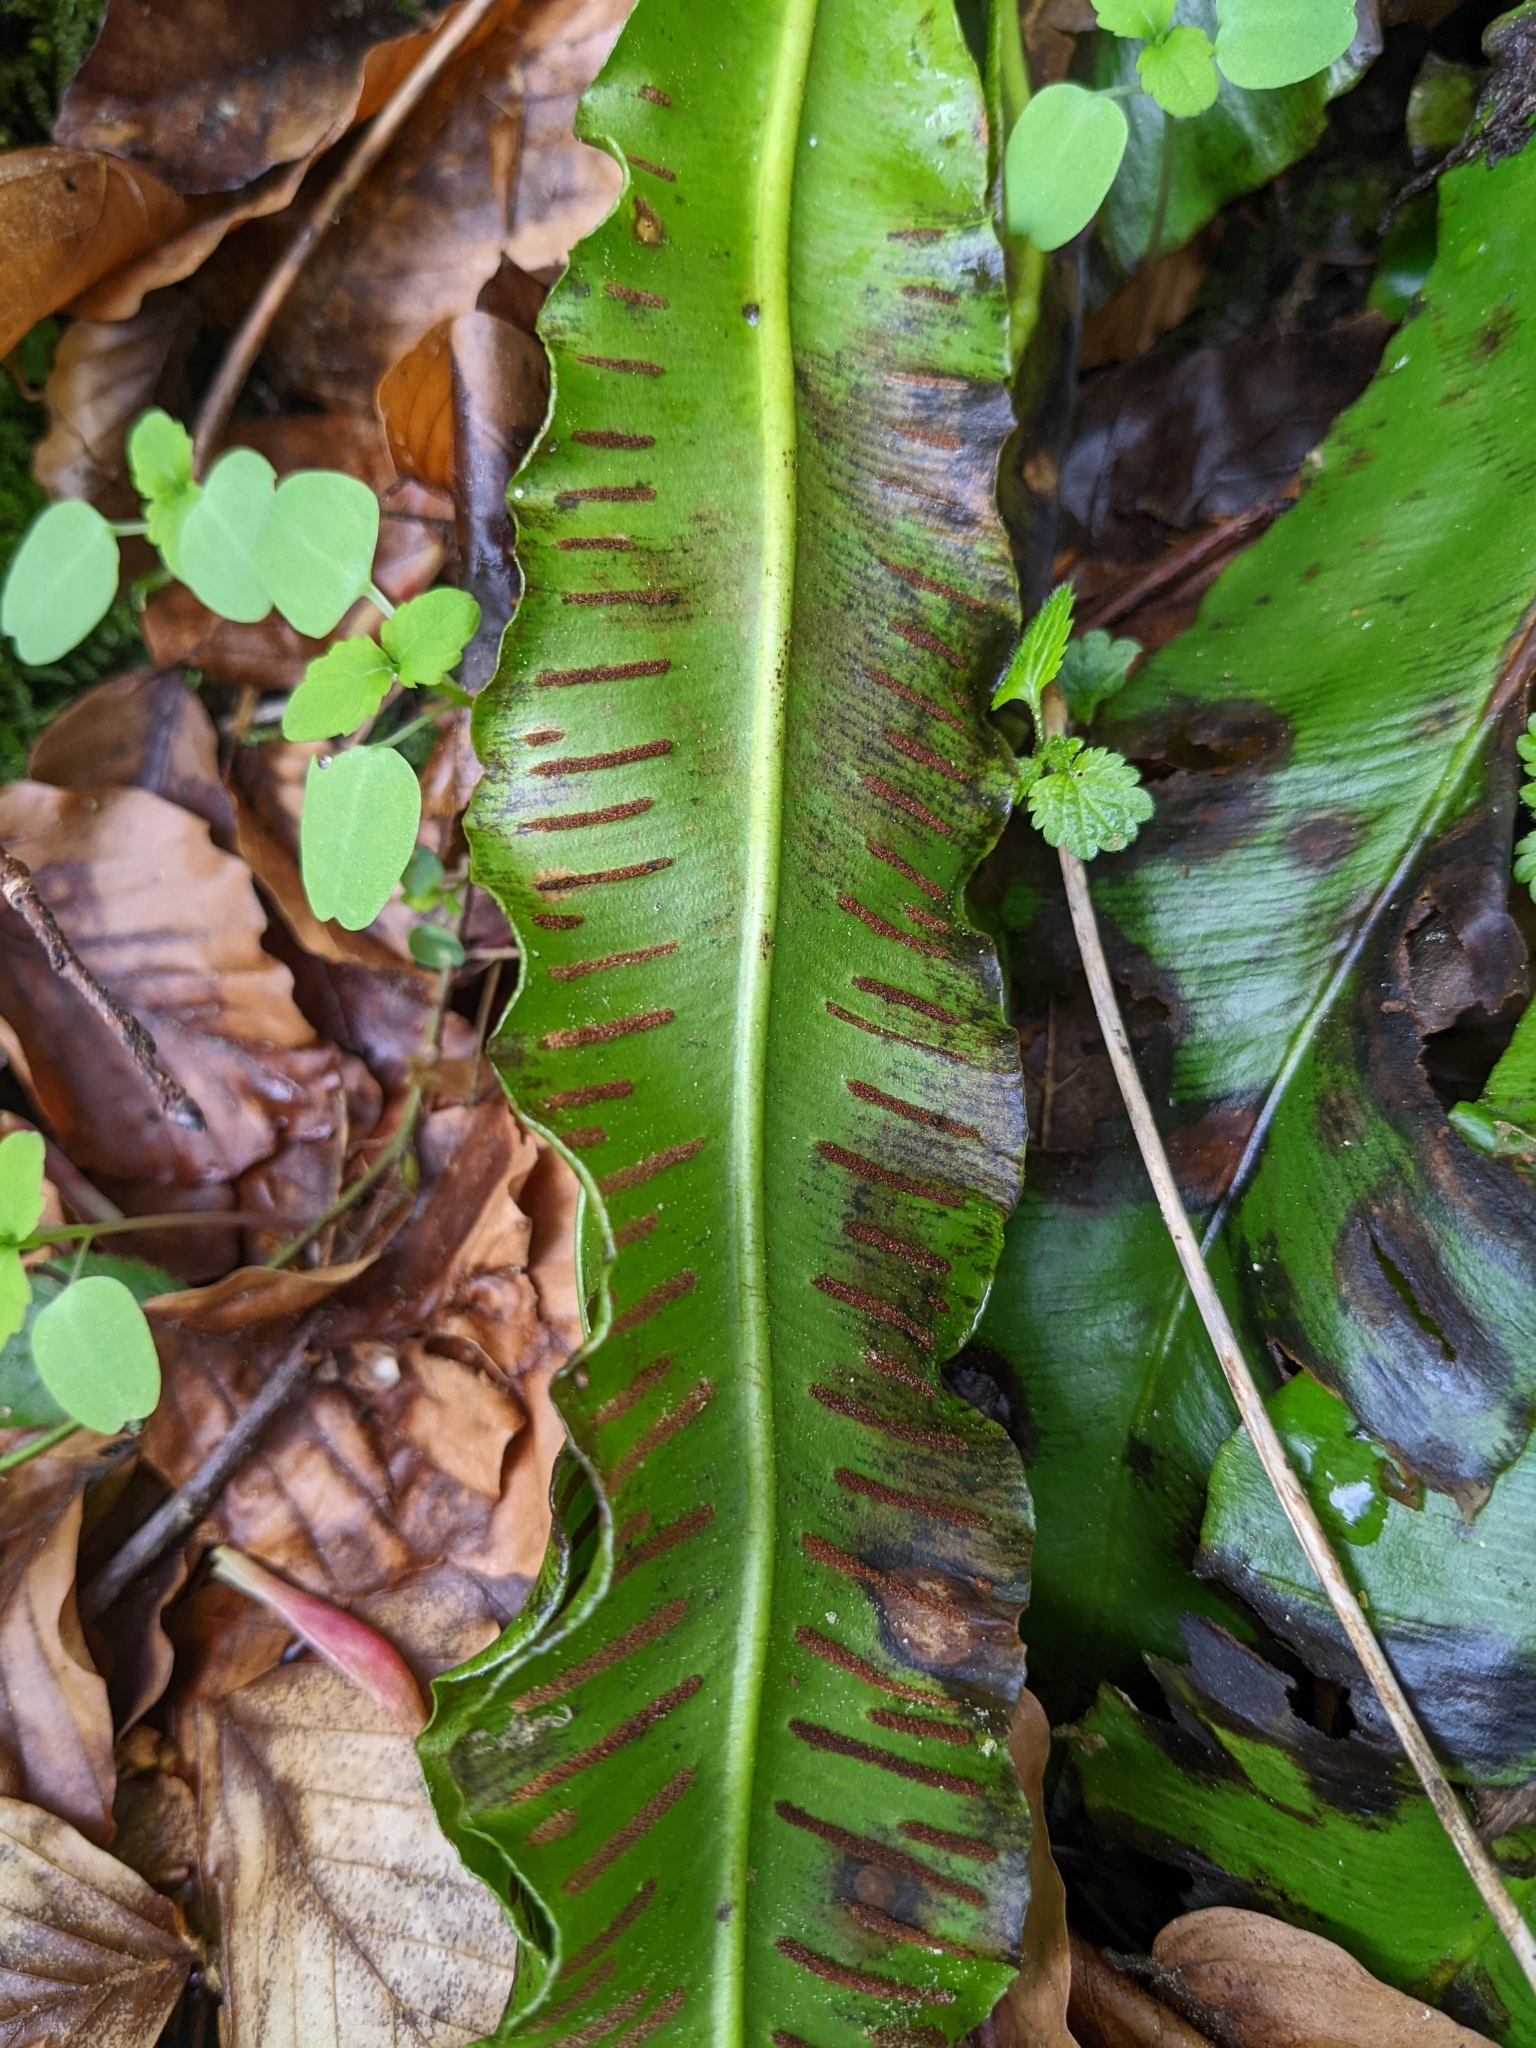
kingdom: Plantae
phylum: Tracheophyta
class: Polypodiopsida
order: Polypodiales
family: Aspleniaceae
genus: Asplenium
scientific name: Asplenium scolopendrium
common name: Hart's-tongue fern
